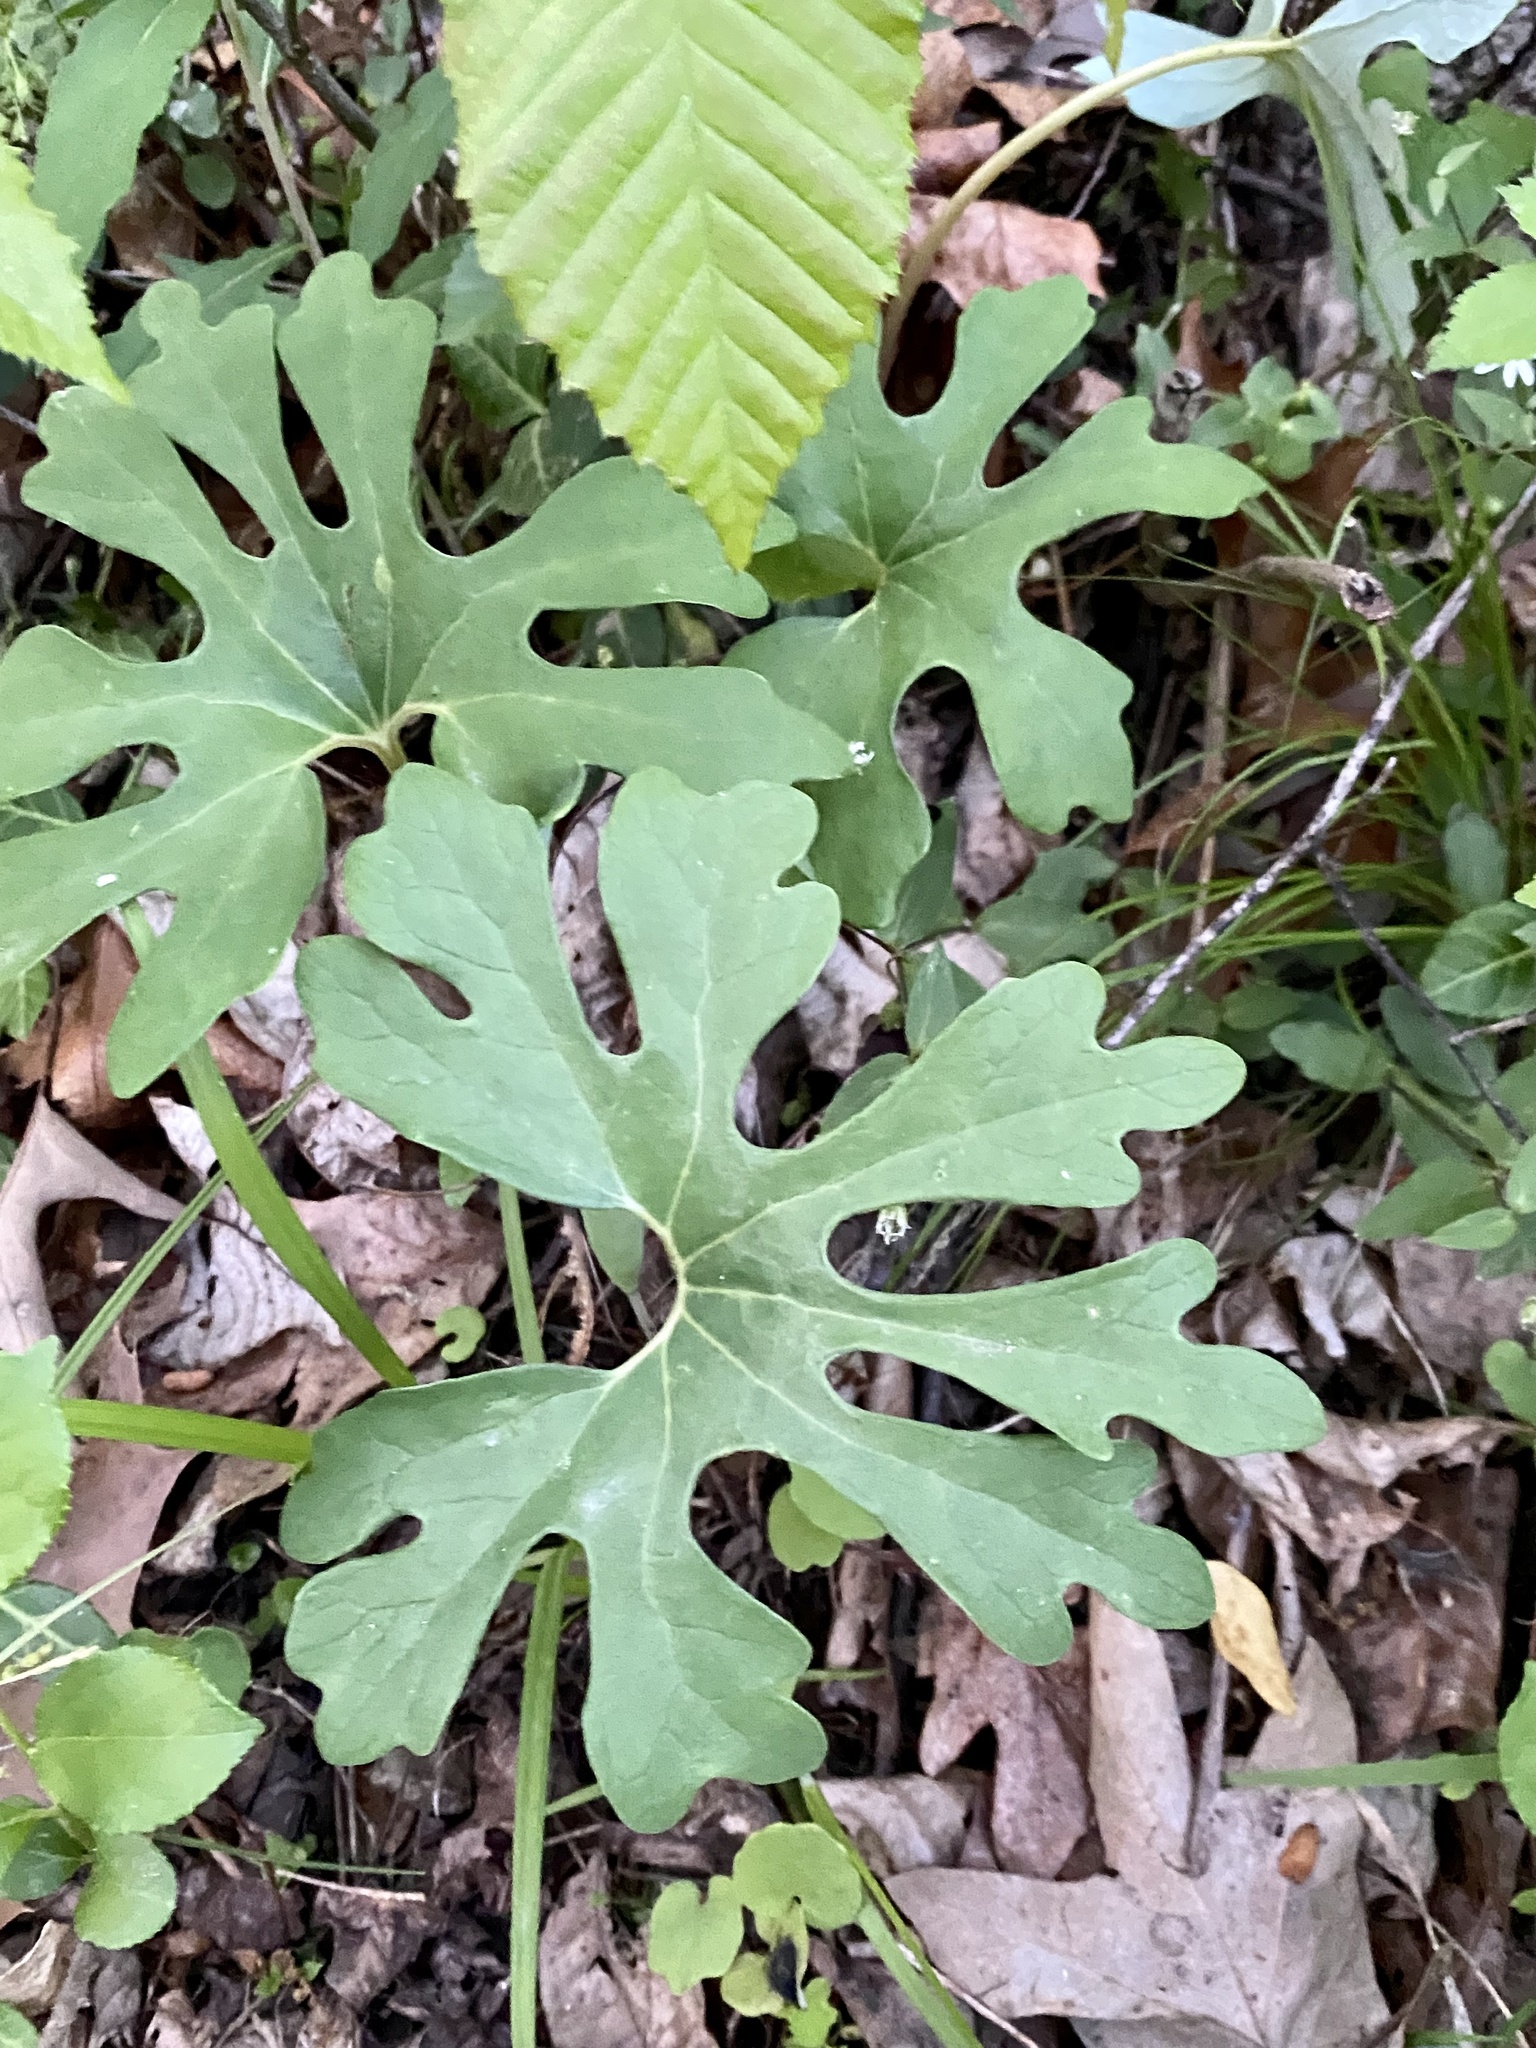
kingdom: Plantae
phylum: Tracheophyta
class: Magnoliopsida
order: Ranunculales
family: Papaveraceae
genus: Sanguinaria
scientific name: Sanguinaria canadensis
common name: Bloodroot
